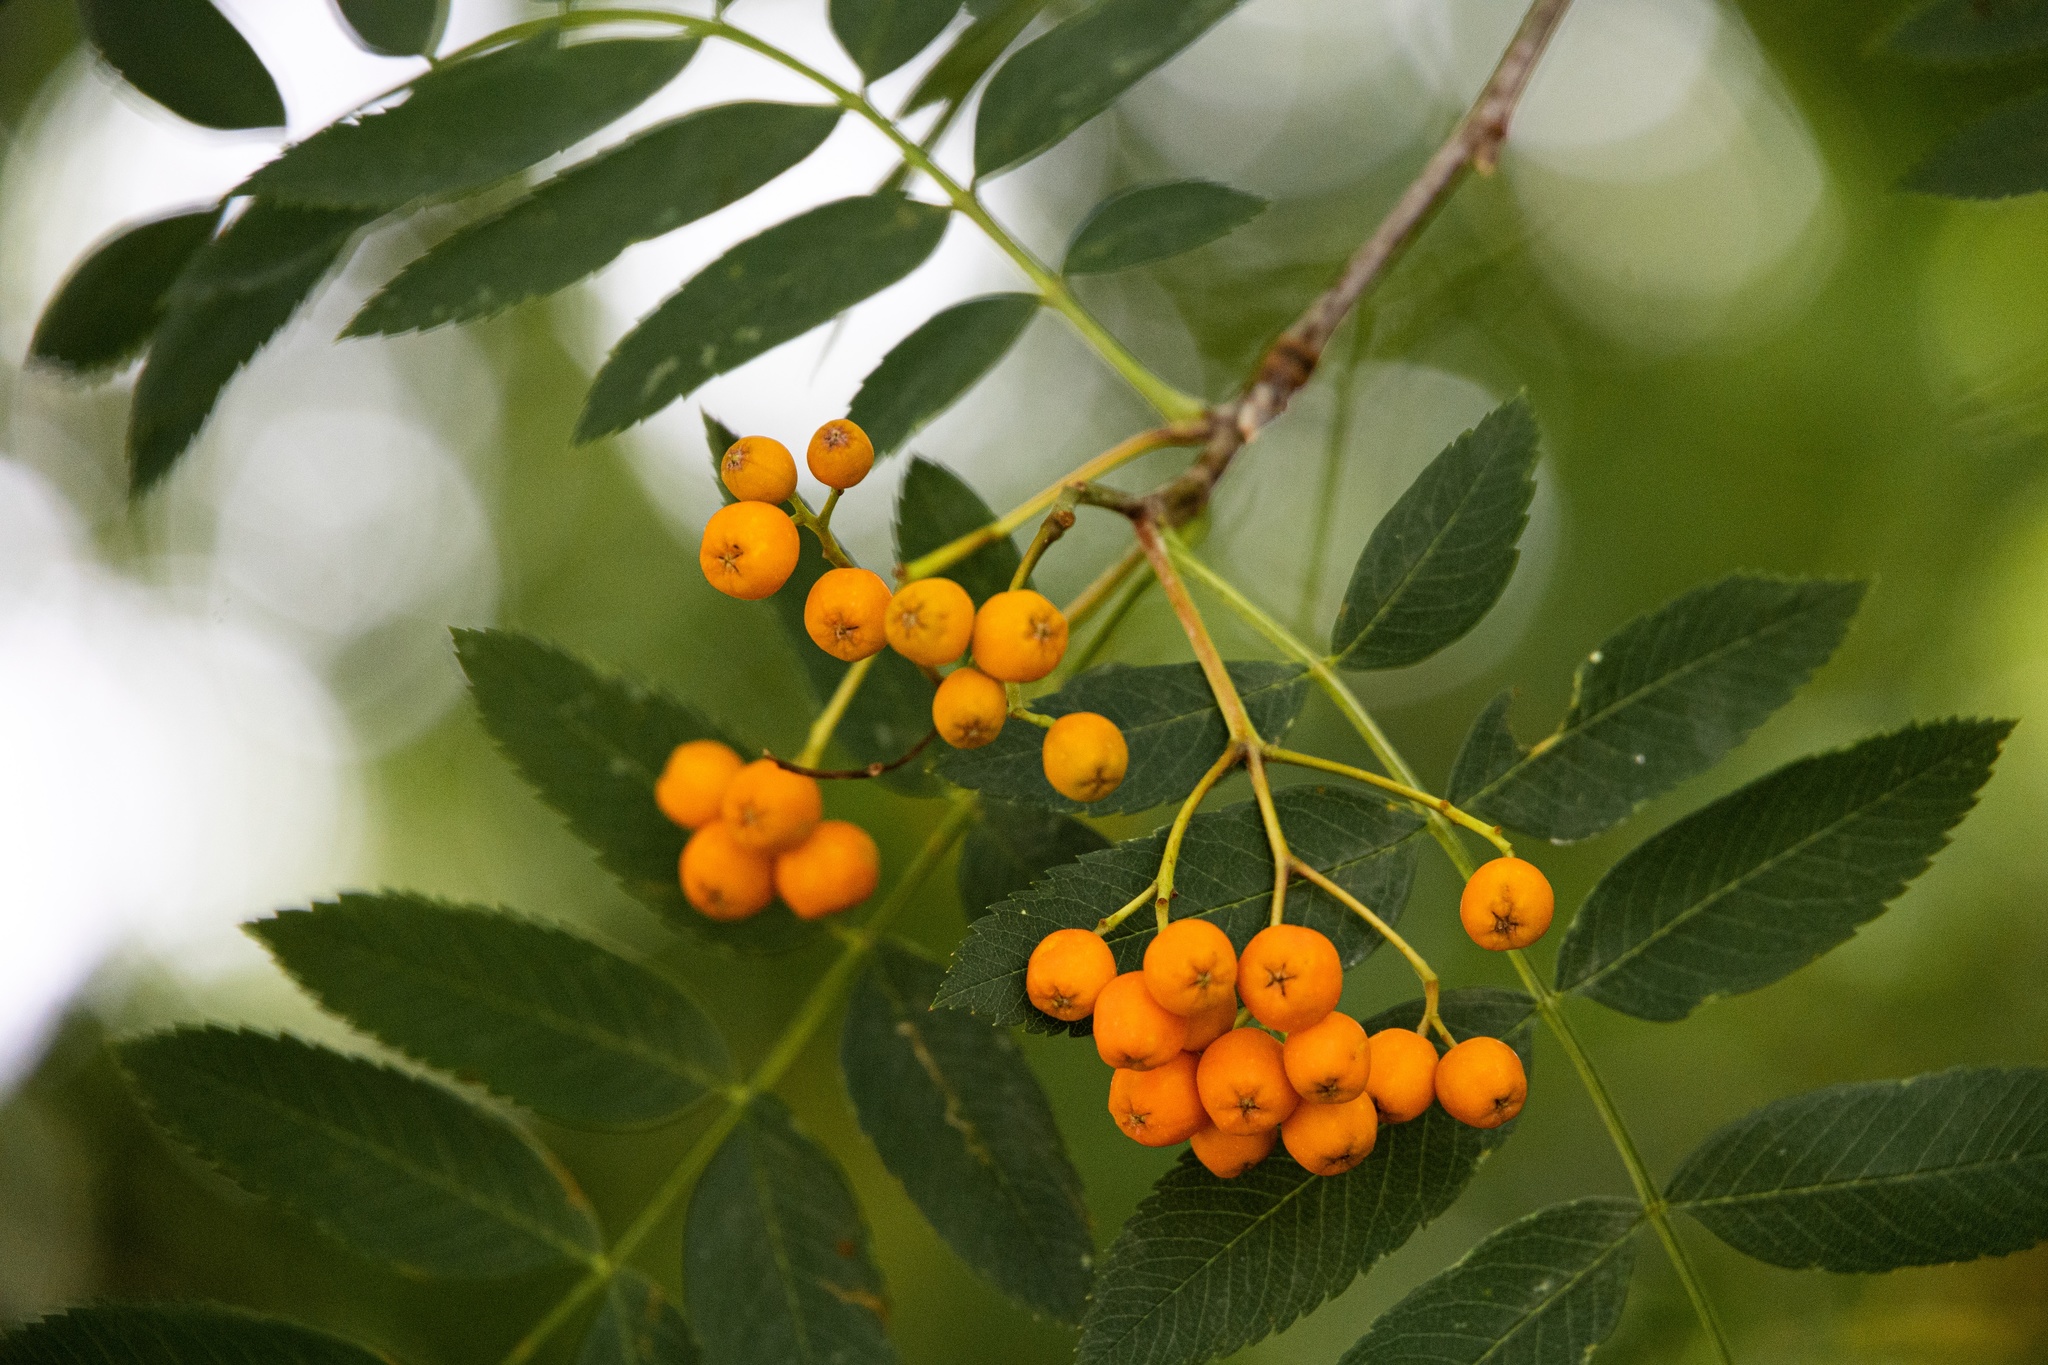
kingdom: Plantae
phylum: Tracheophyta
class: Magnoliopsida
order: Rosales
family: Rosaceae
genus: Sorbus
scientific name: Sorbus aucuparia
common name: Rowan
